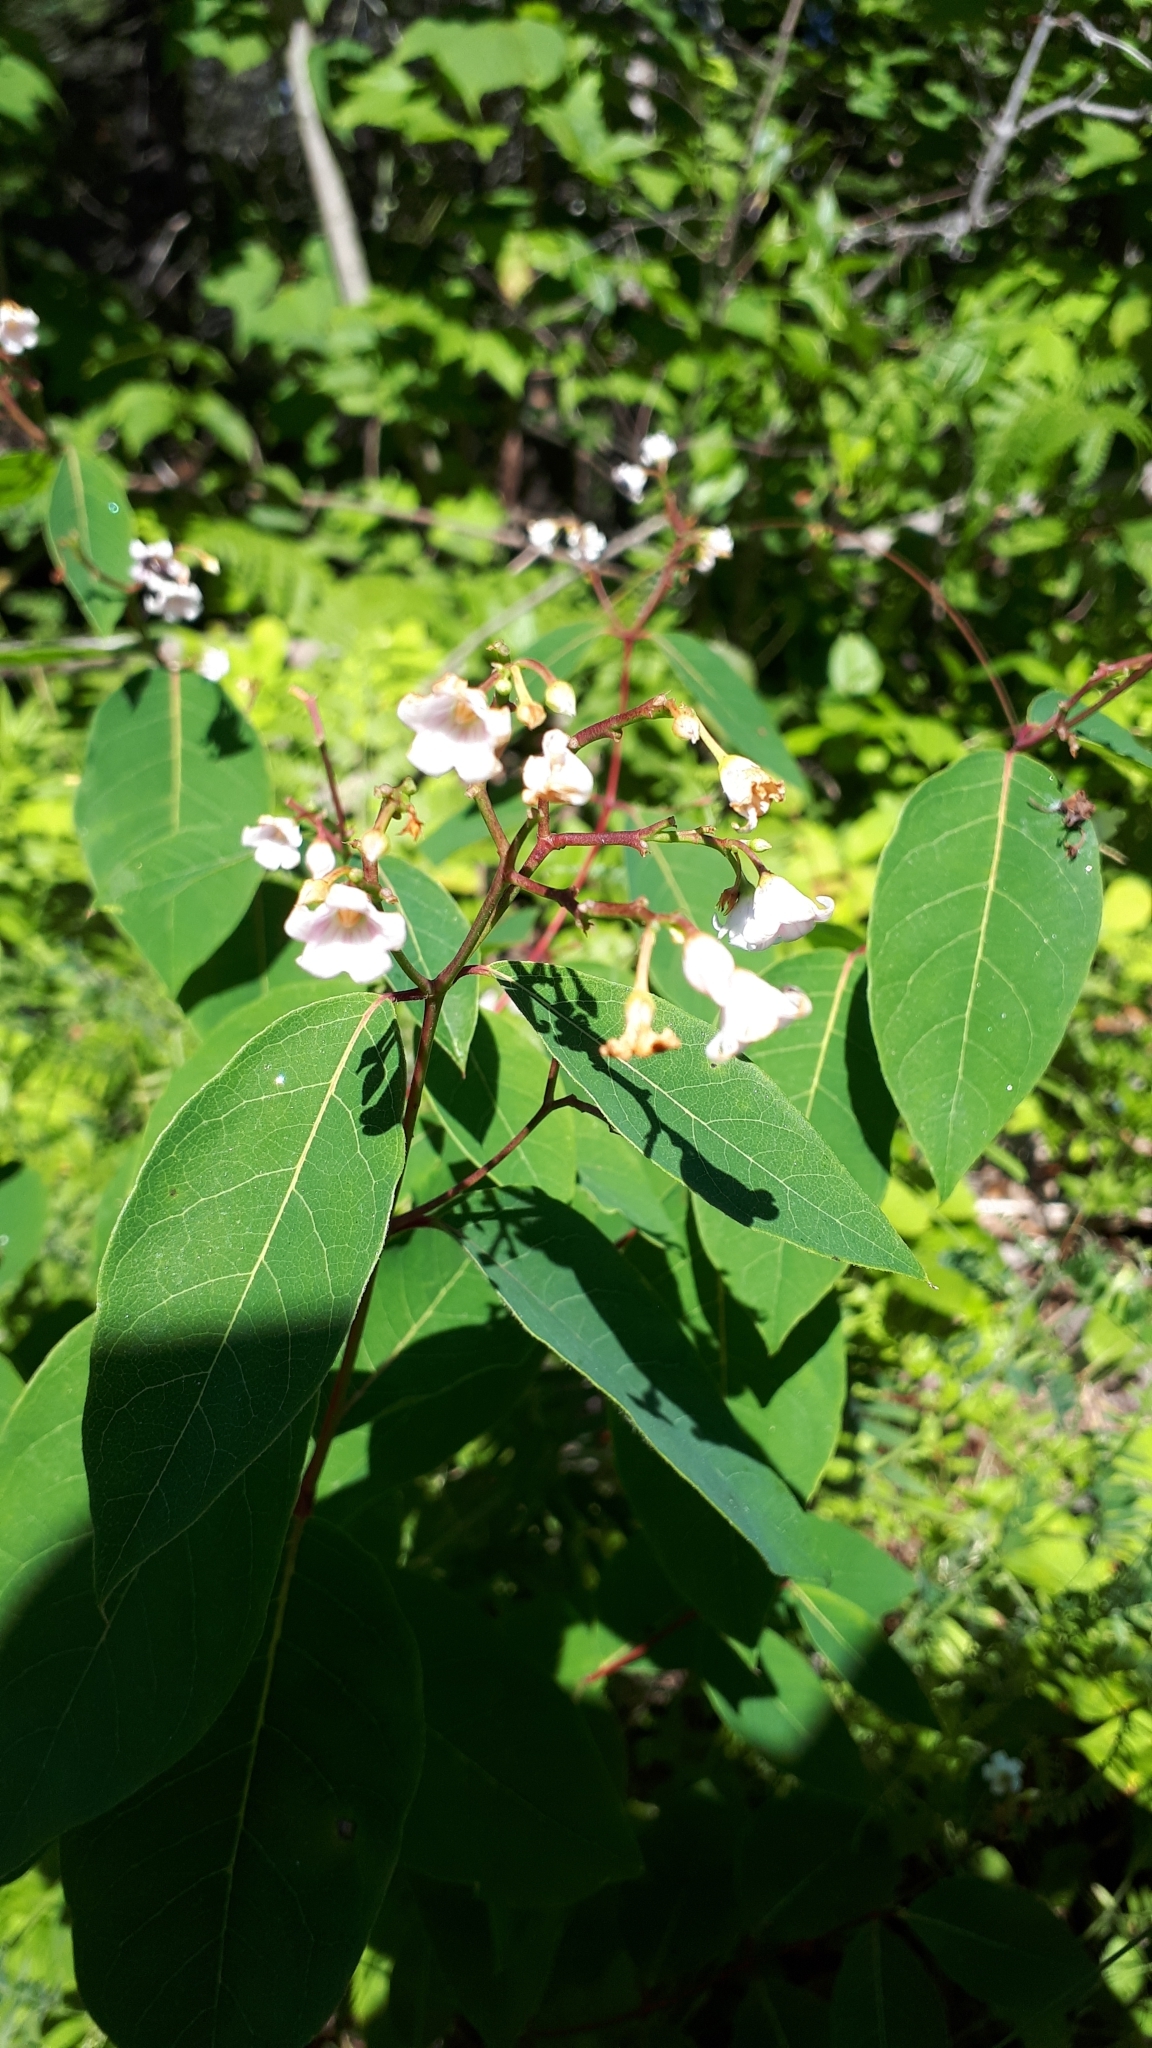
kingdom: Plantae
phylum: Tracheophyta
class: Magnoliopsida
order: Gentianales
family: Apocynaceae
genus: Apocynum
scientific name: Apocynum androsaemifolium
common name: Spreading dogbane
